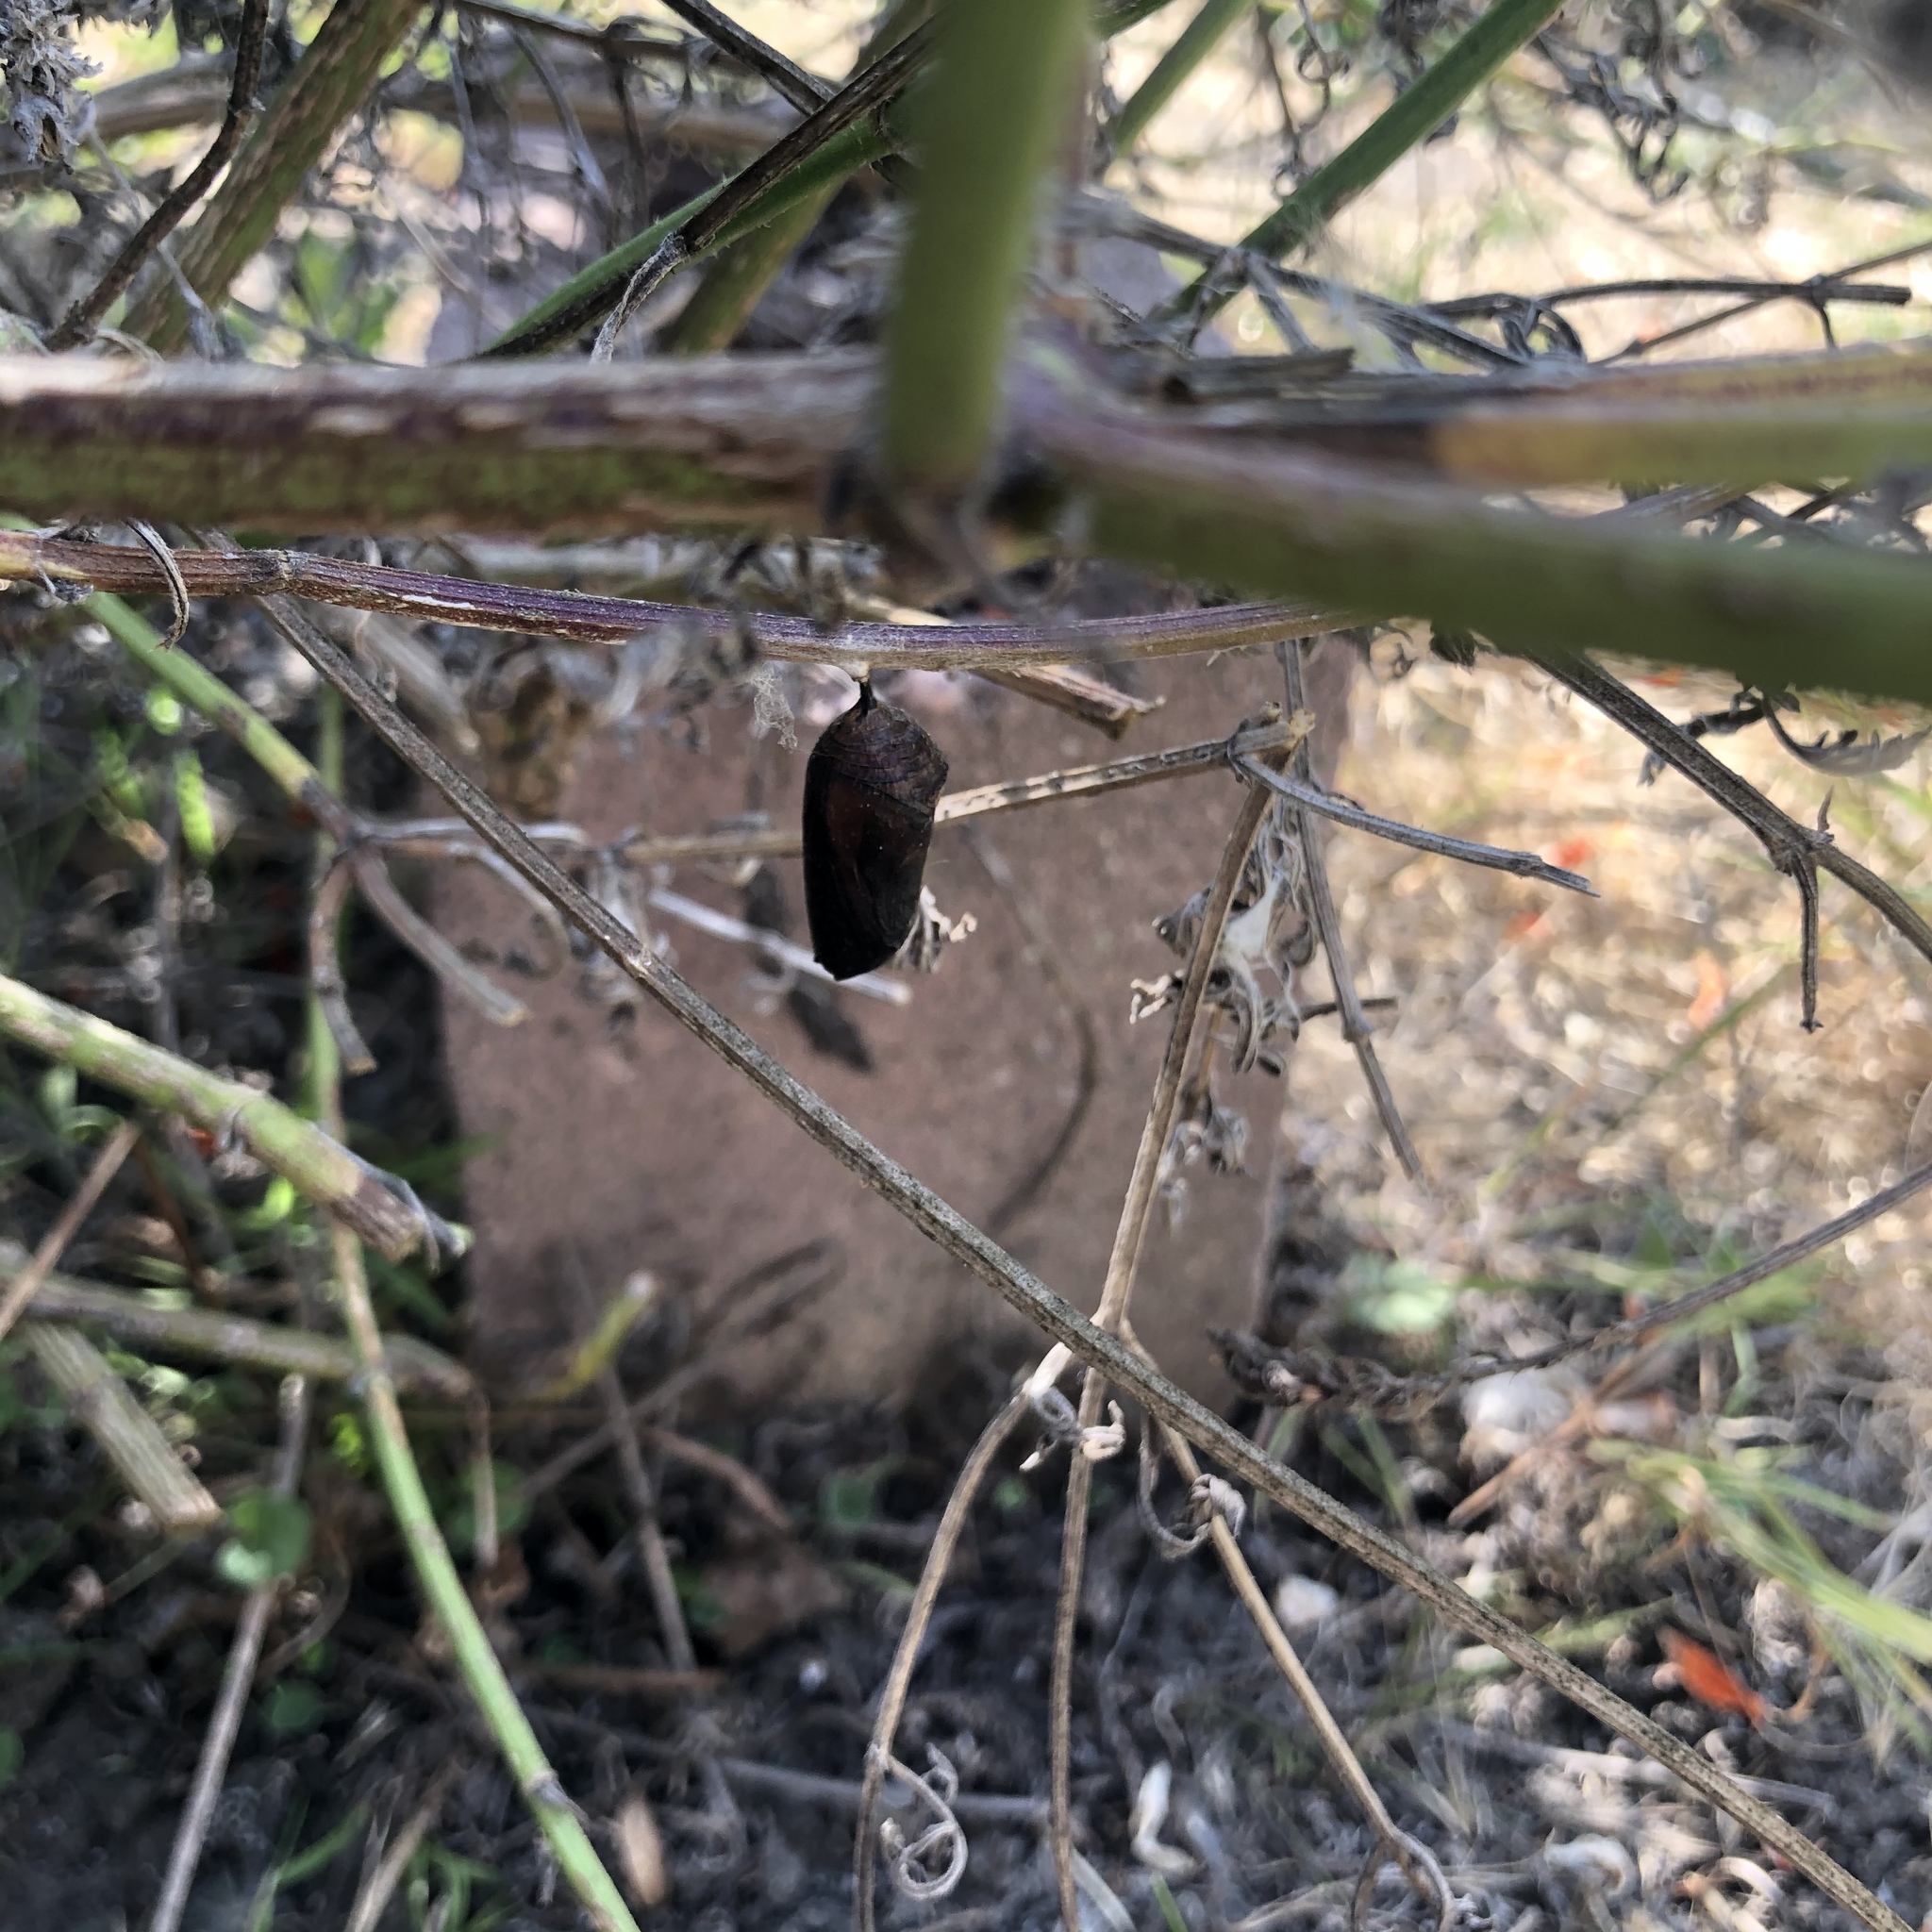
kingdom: Animalia
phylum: Arthropoda
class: Insecta
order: Lepidoptera
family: Nymphalidae
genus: Danaus
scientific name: Danaus plexippus
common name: Monarch
